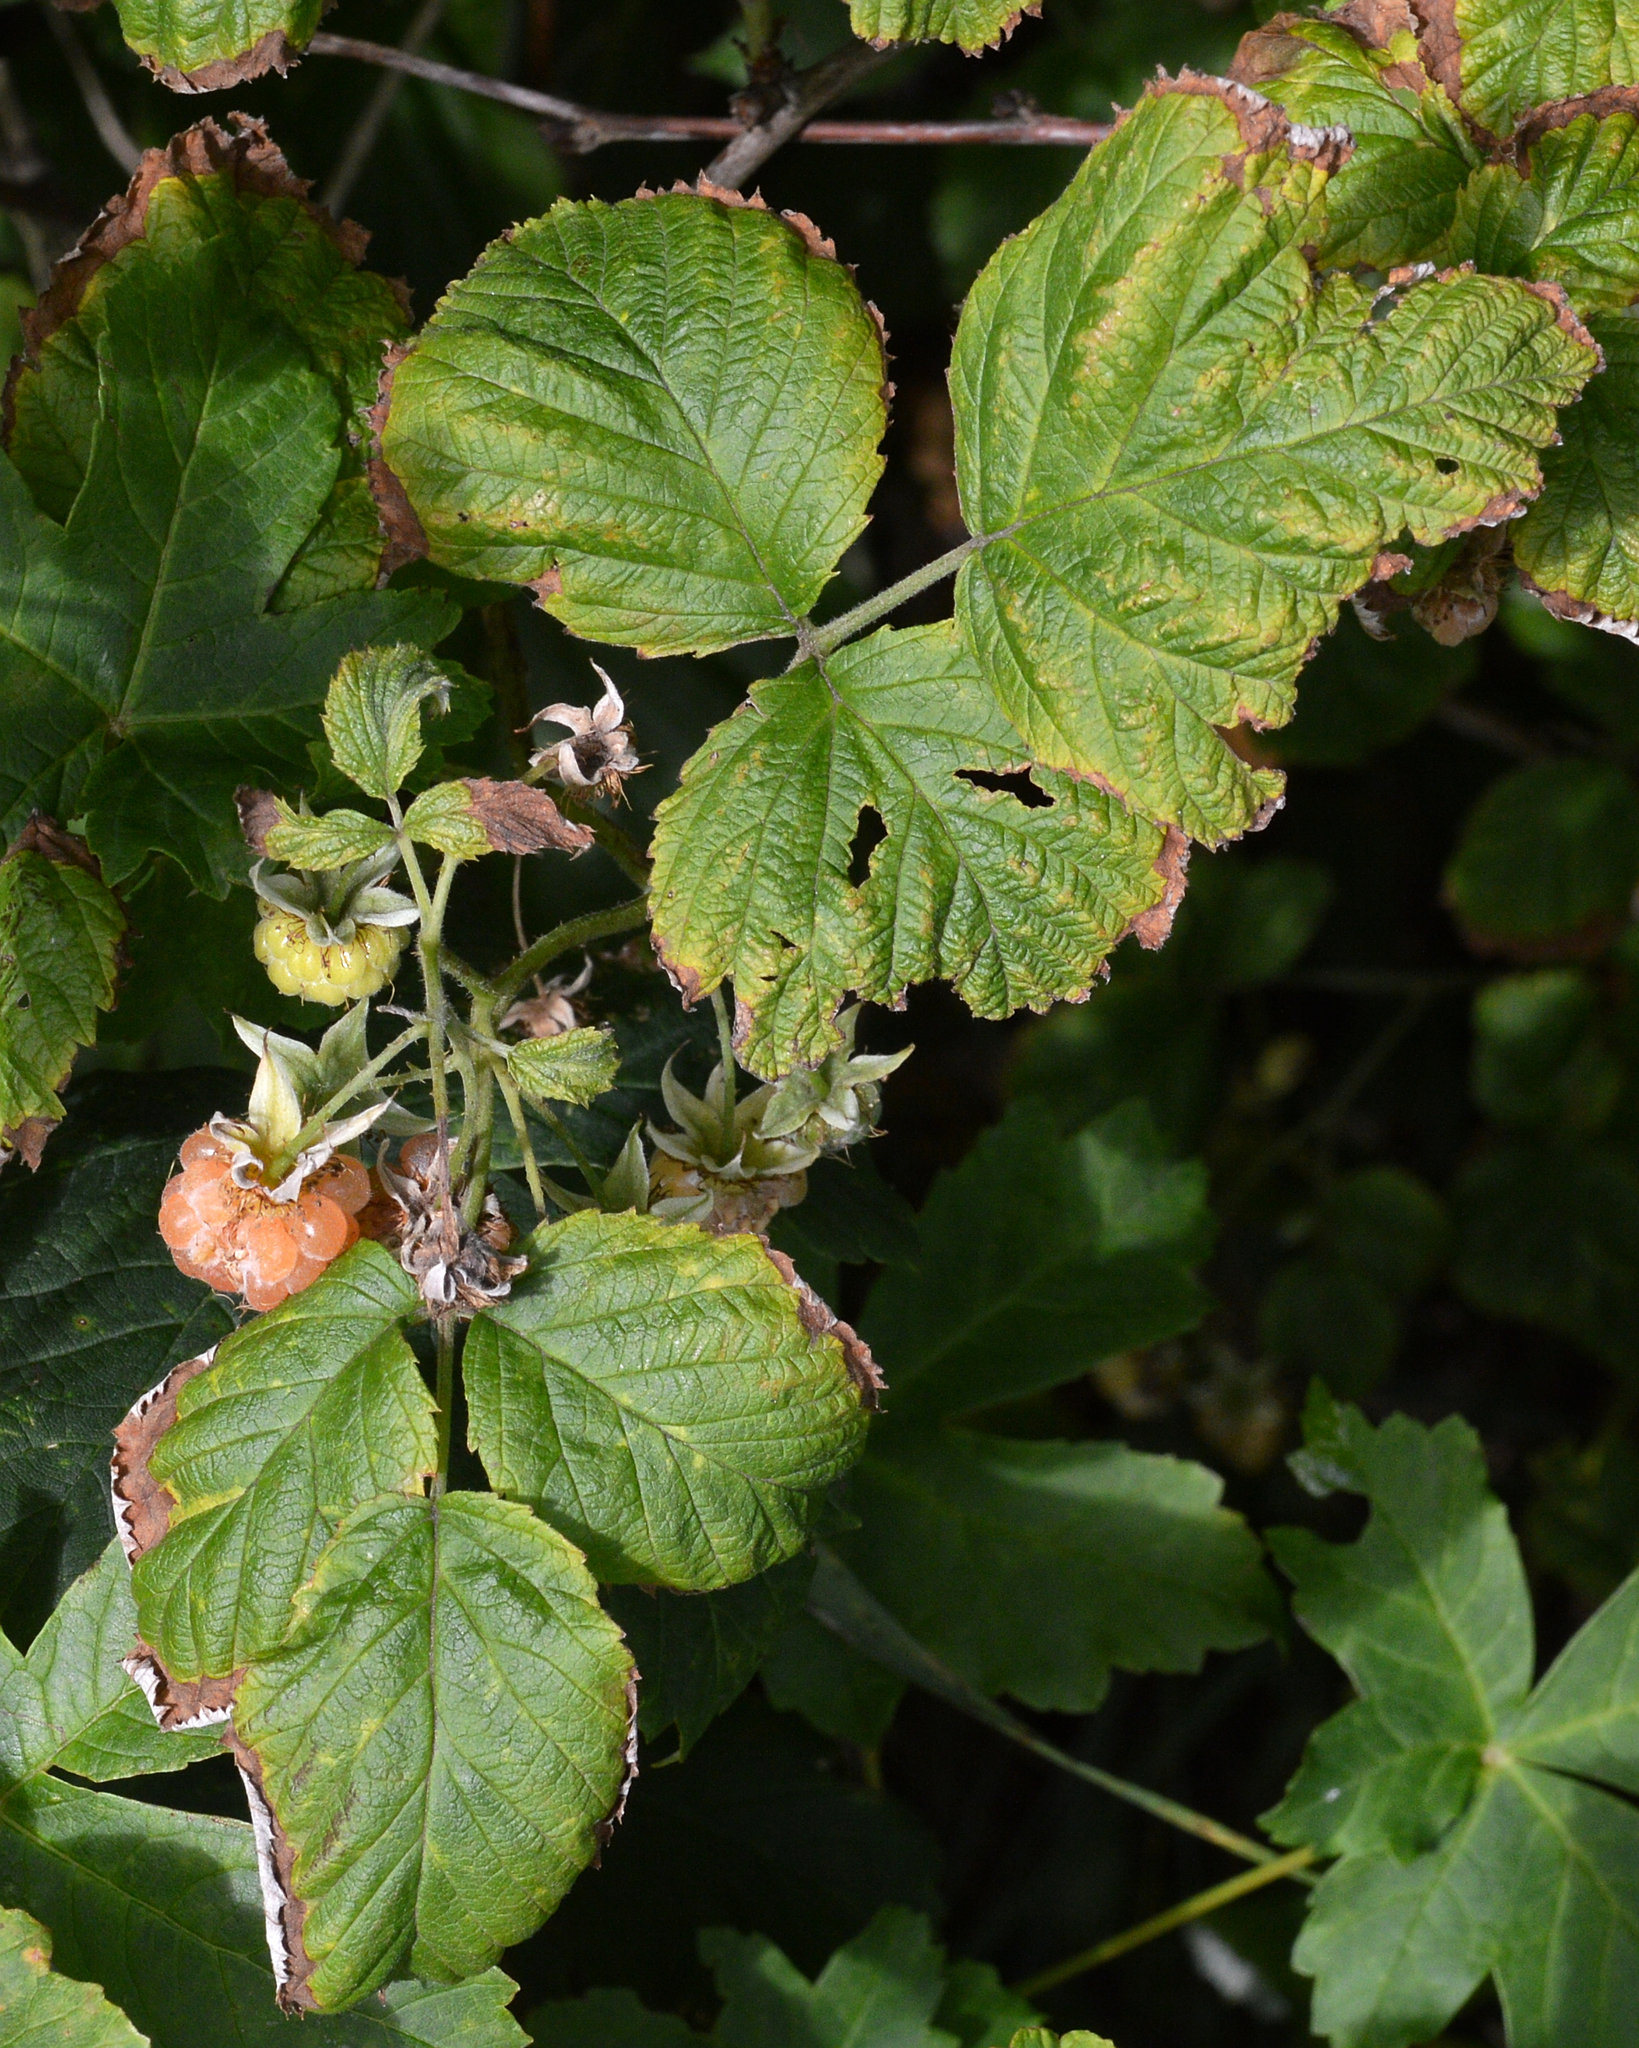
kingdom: Plantae
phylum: Tracheophyta
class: Magnoliopsida
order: Rosales
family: Rosaceae
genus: Rubus
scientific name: Rubus idaeus
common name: Raspberry
